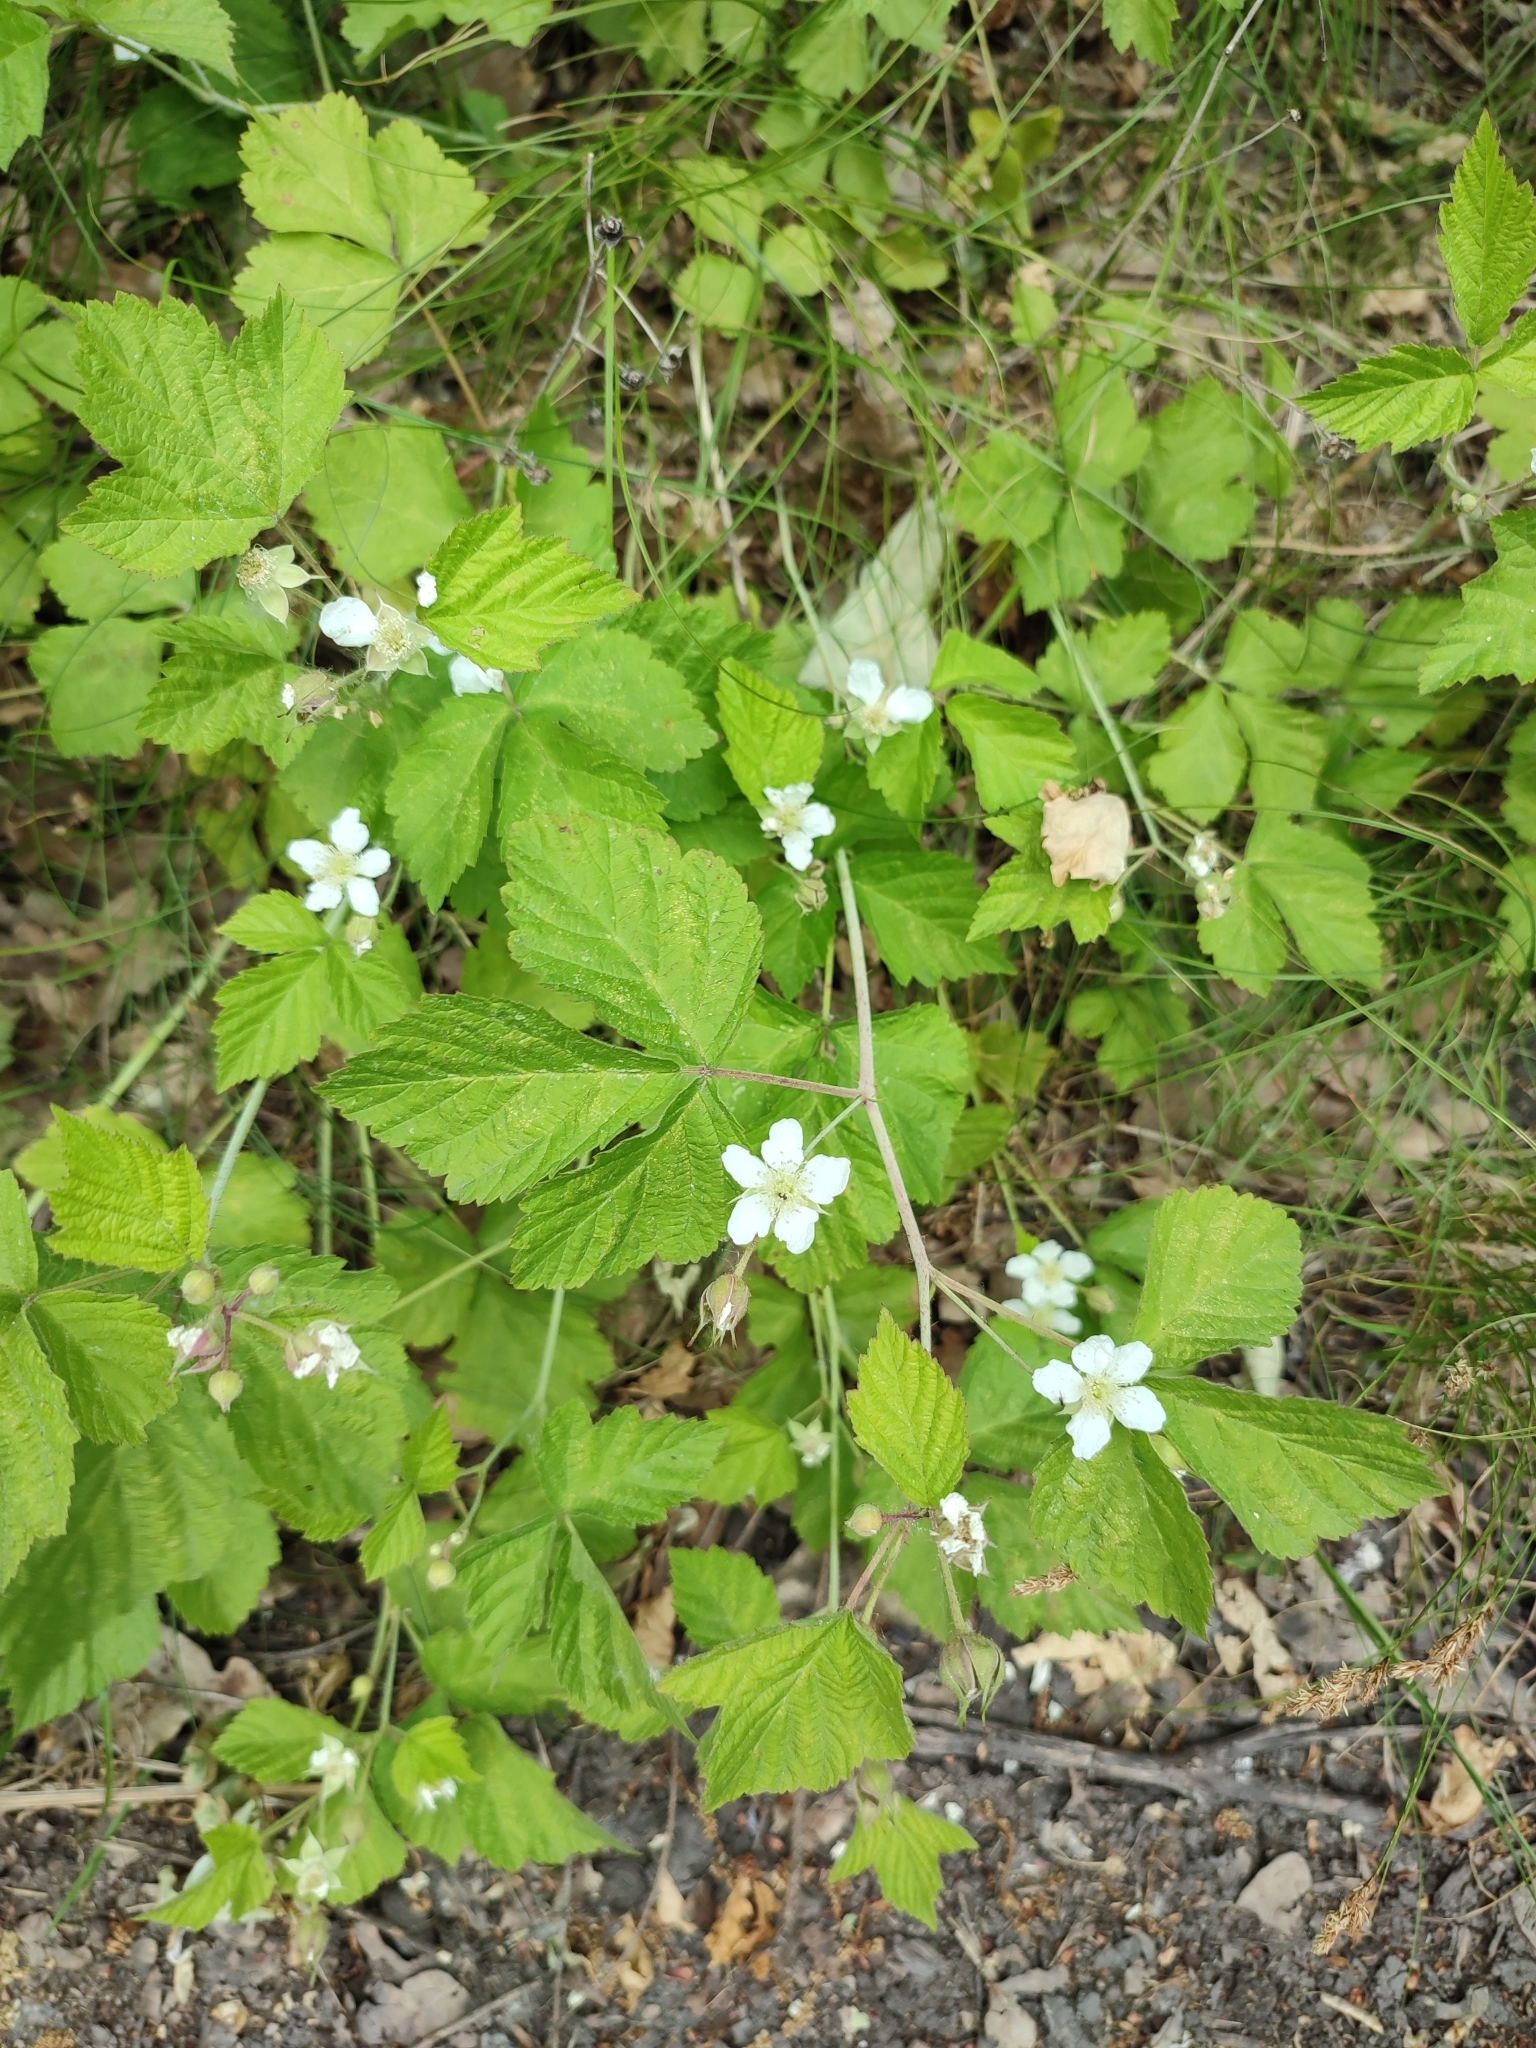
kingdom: Plantae
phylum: Tracheophyta
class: Magnoliopsida
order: Rosales
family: Rosaceae
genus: Rubus
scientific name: Rubus caesius
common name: Dewberry
